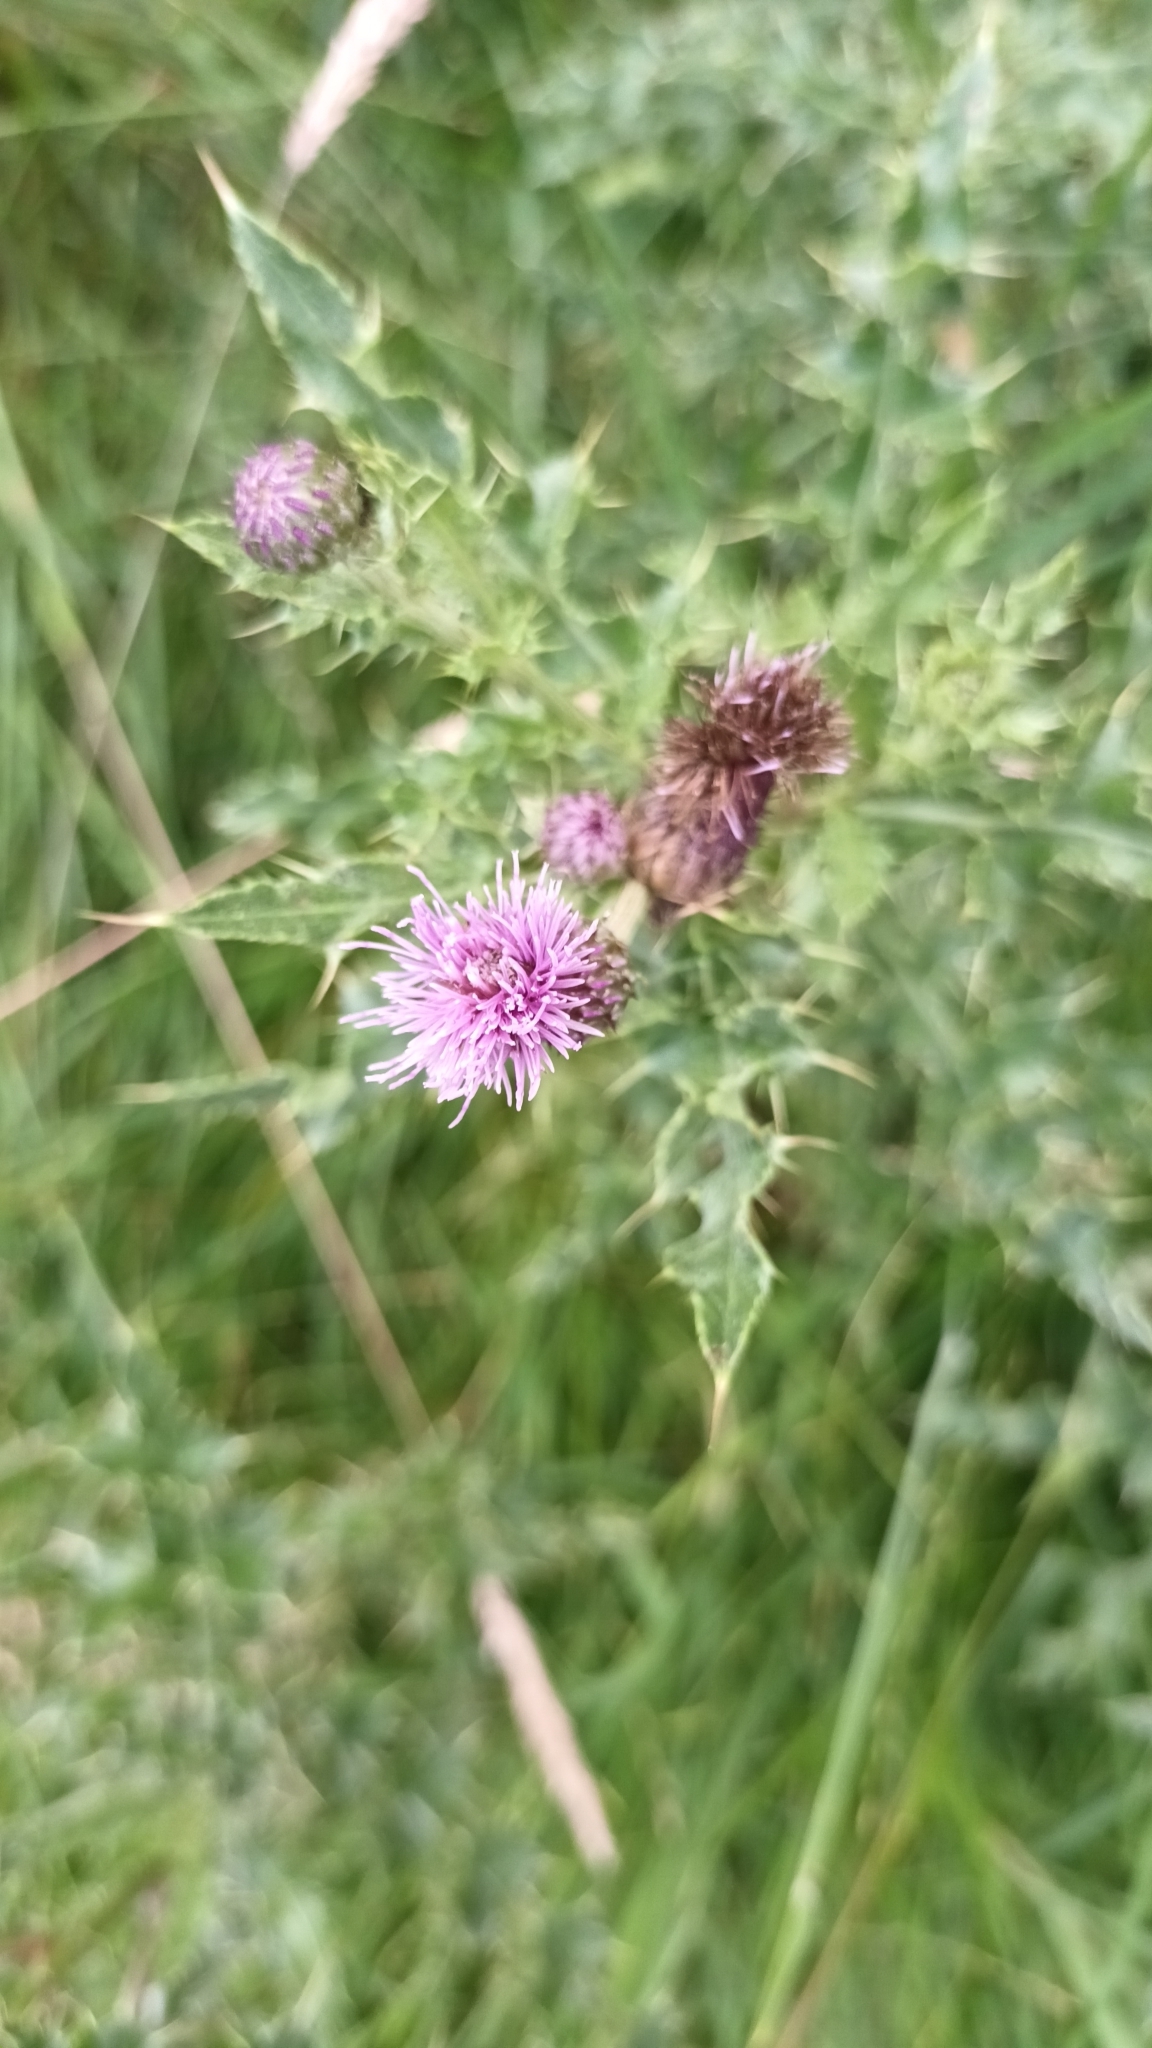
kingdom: Plantae
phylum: Tracheophyta
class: Magnoliopsida
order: Asterales
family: Asteraceae
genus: Cirsium
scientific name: Cirsium arvense
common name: Creeping thistle
